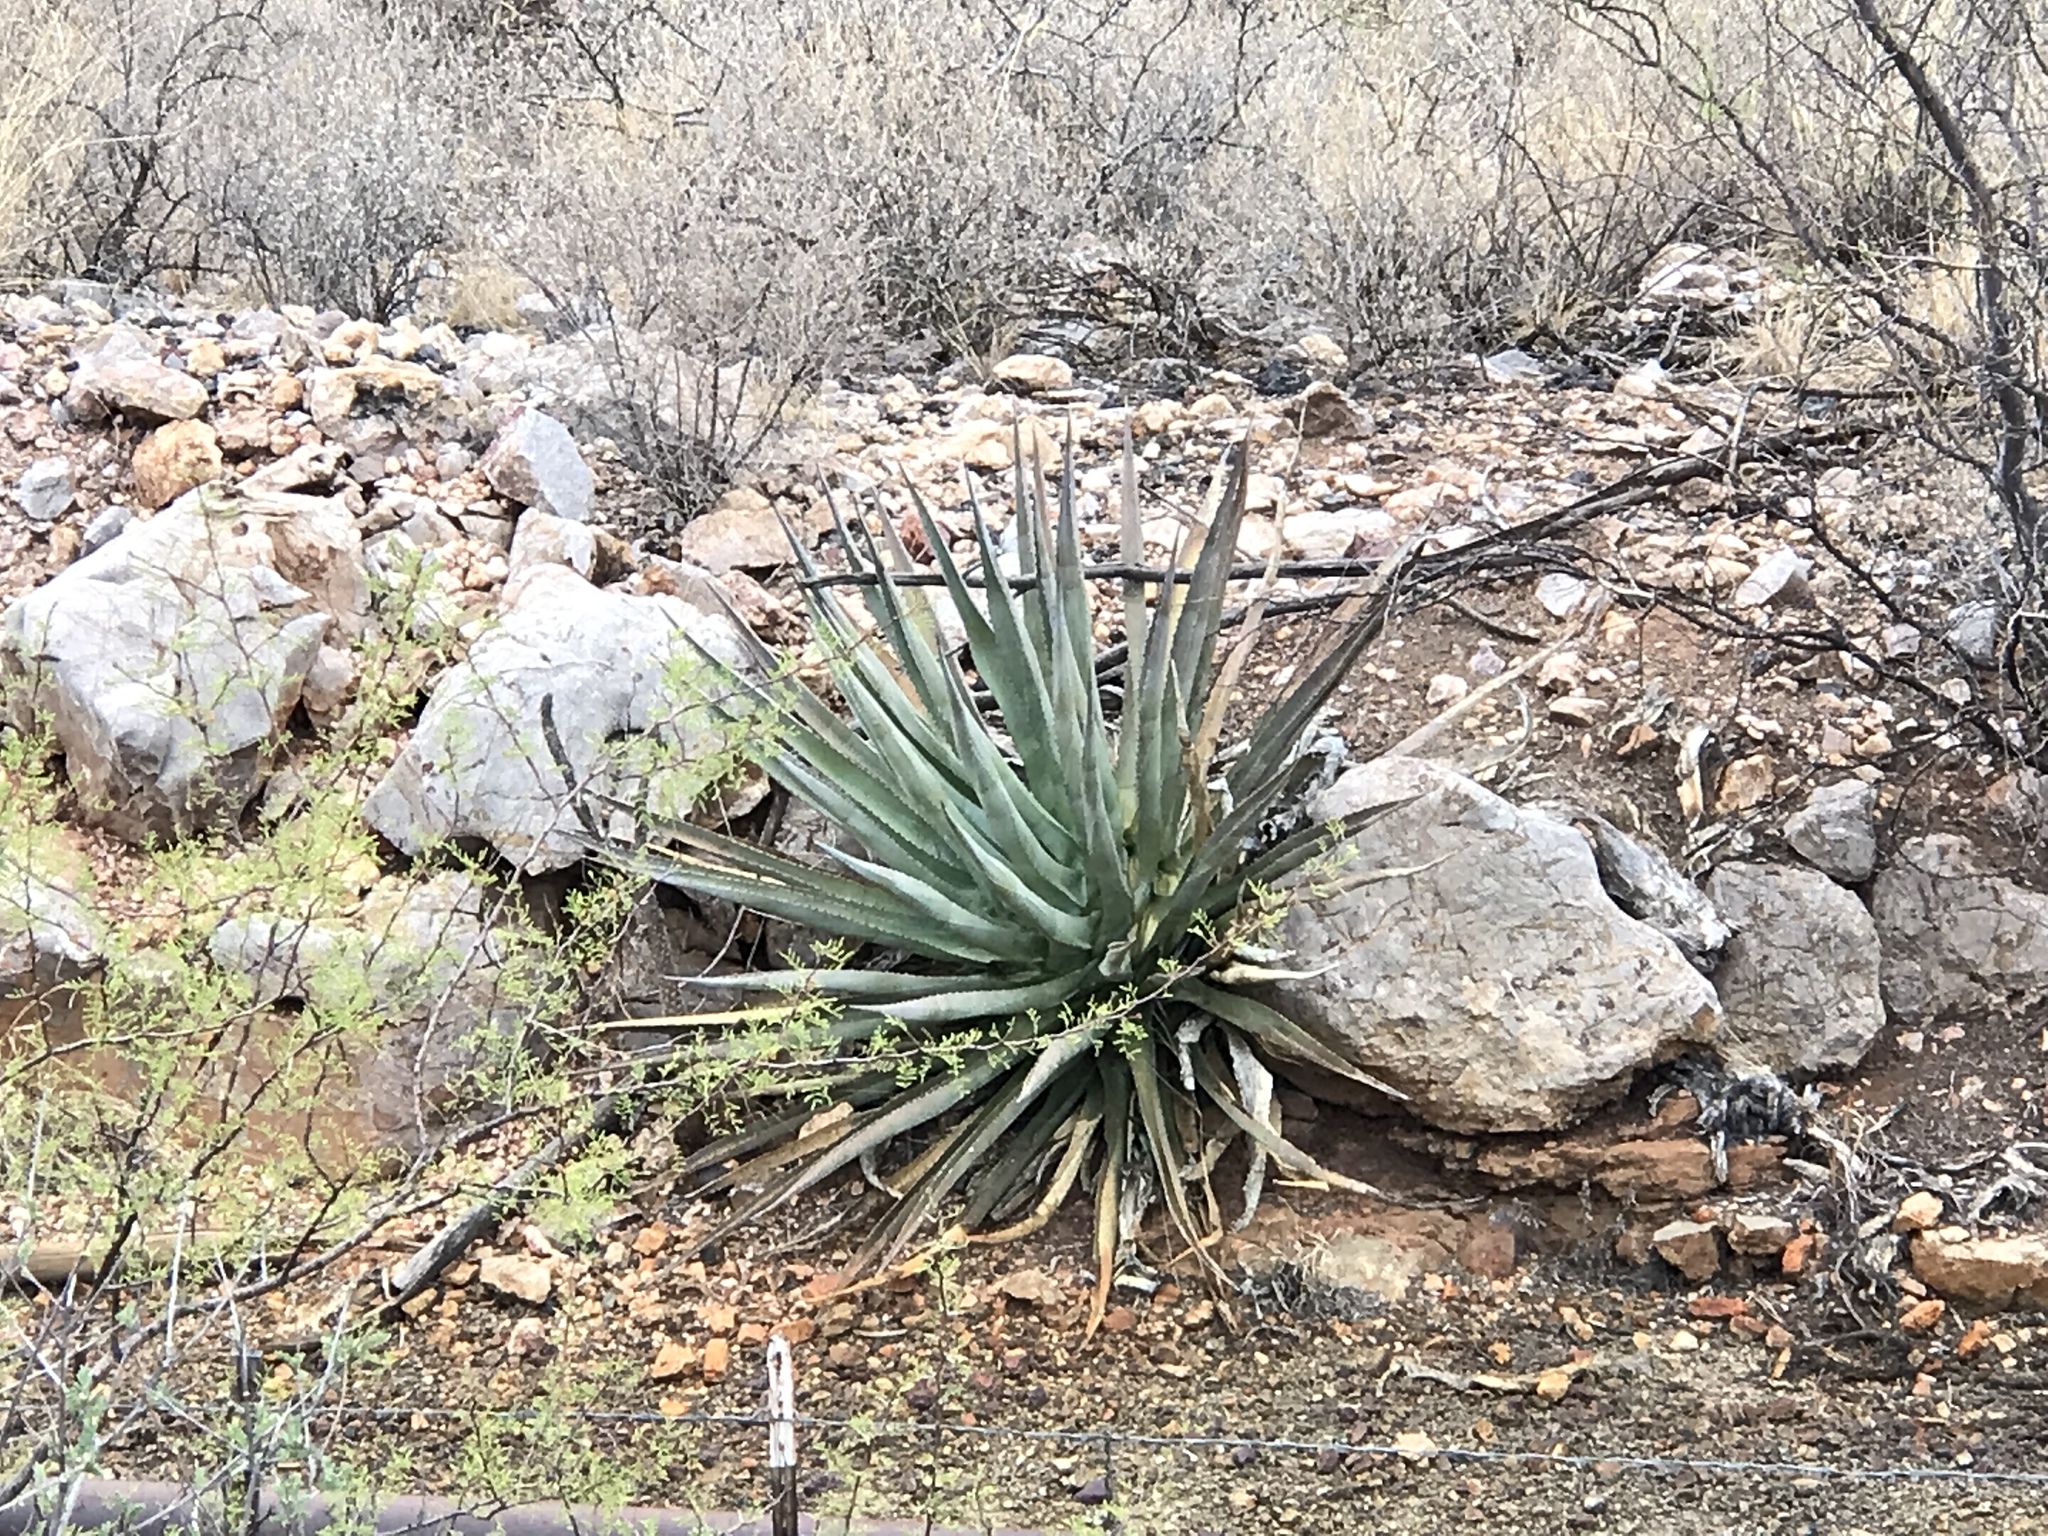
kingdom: Plantae
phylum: Tracheophyta
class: Liliopsida
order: Asparagales
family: Asparagaceae
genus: Agave
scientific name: Agave palmeri
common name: Palmer agave
